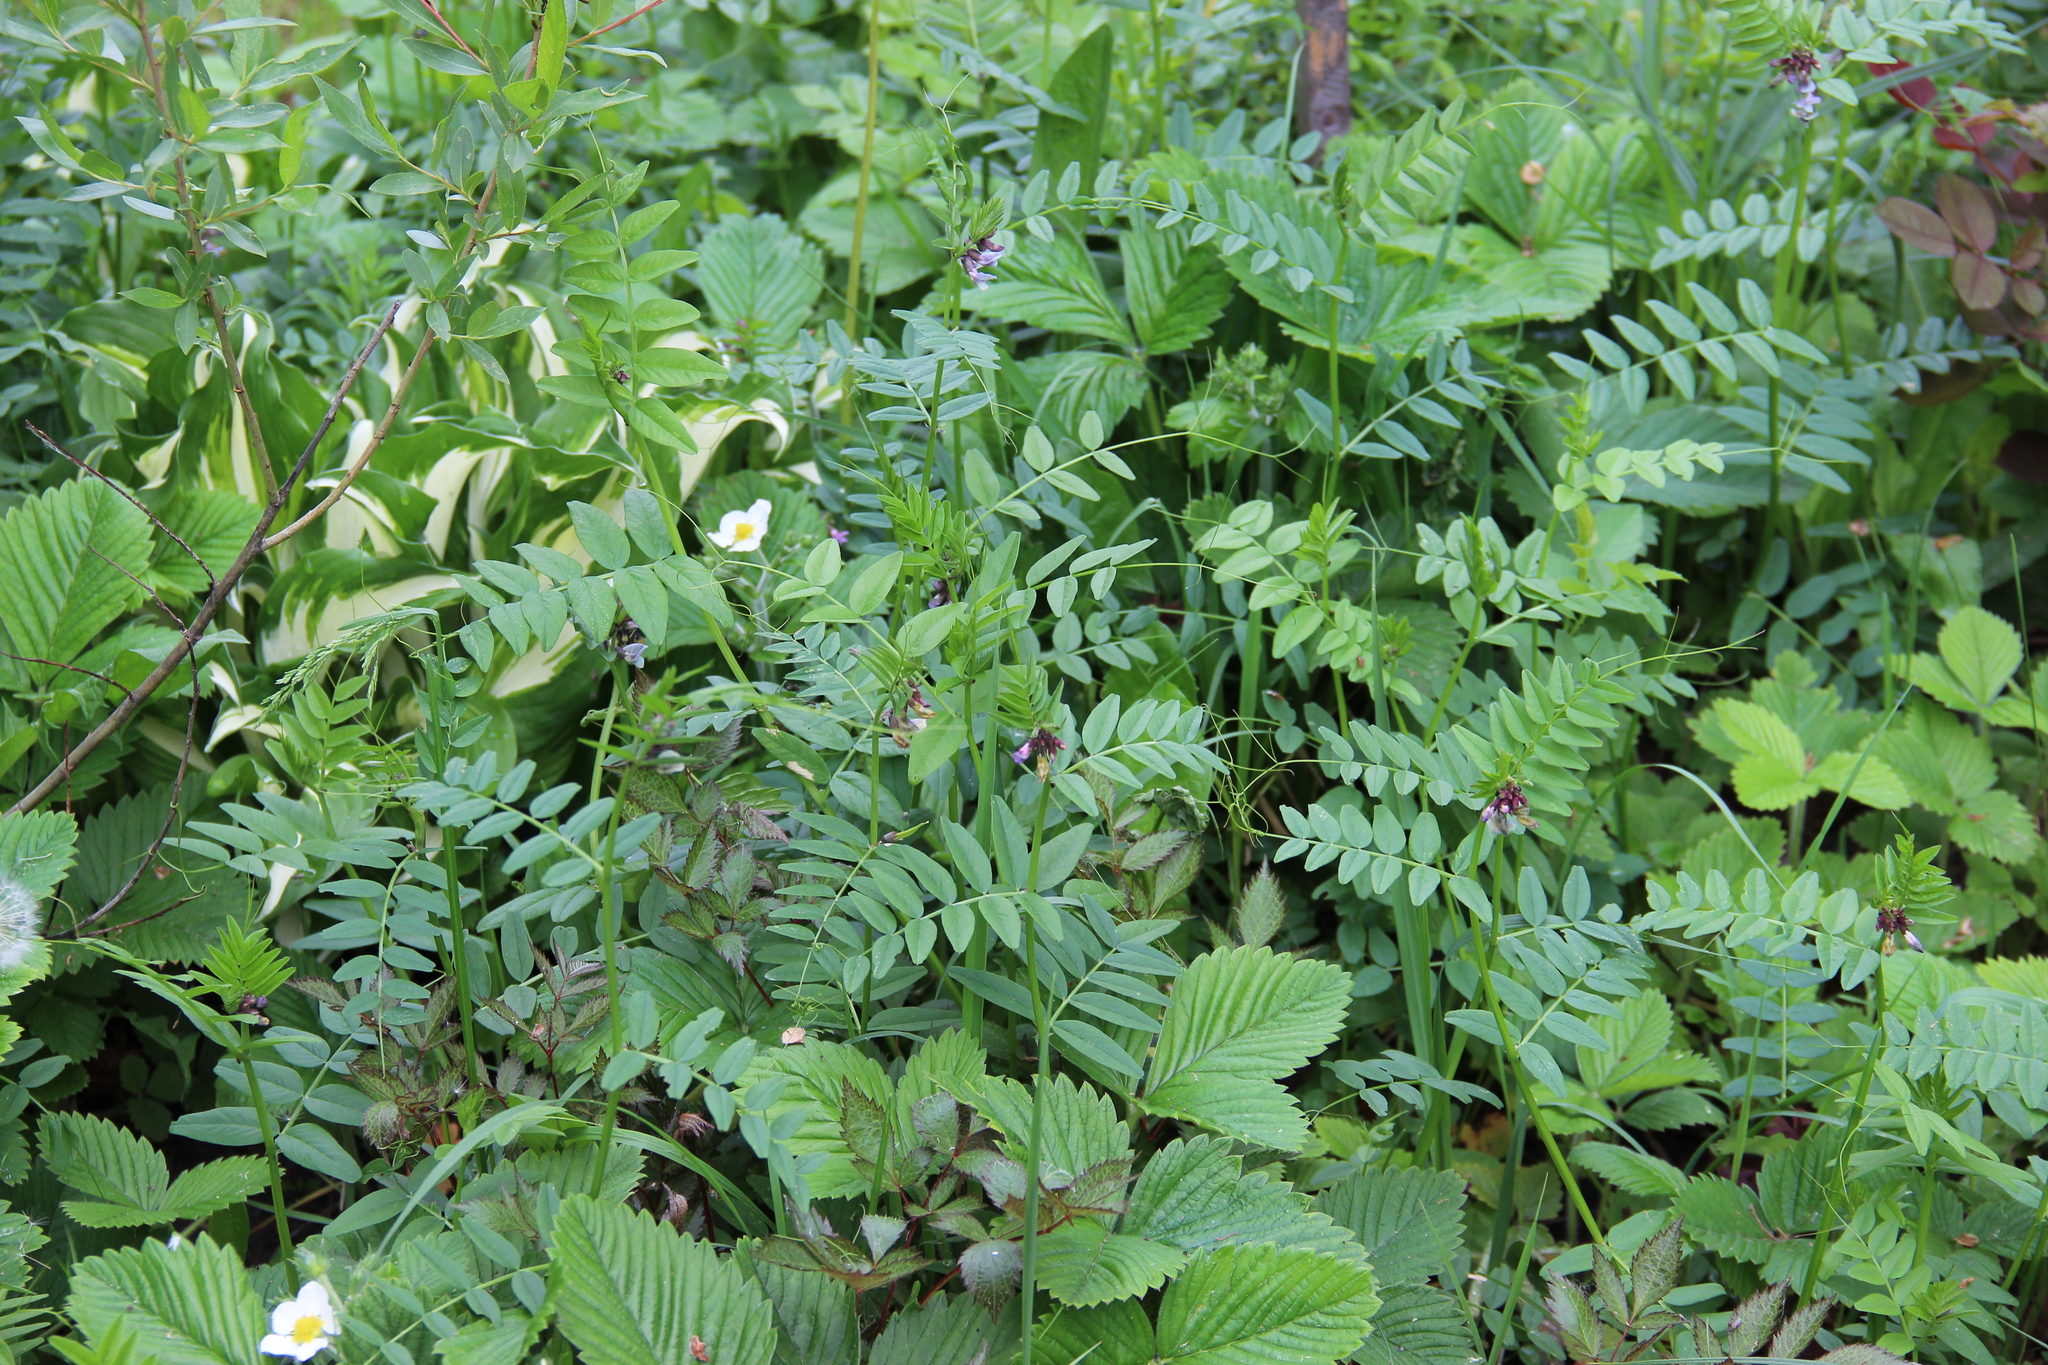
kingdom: Plantae
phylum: Tracheophyta
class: Magnoliopsida
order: Fabales
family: Fabaceae
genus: Vicia
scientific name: Vicia sepium
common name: Bush vetch
